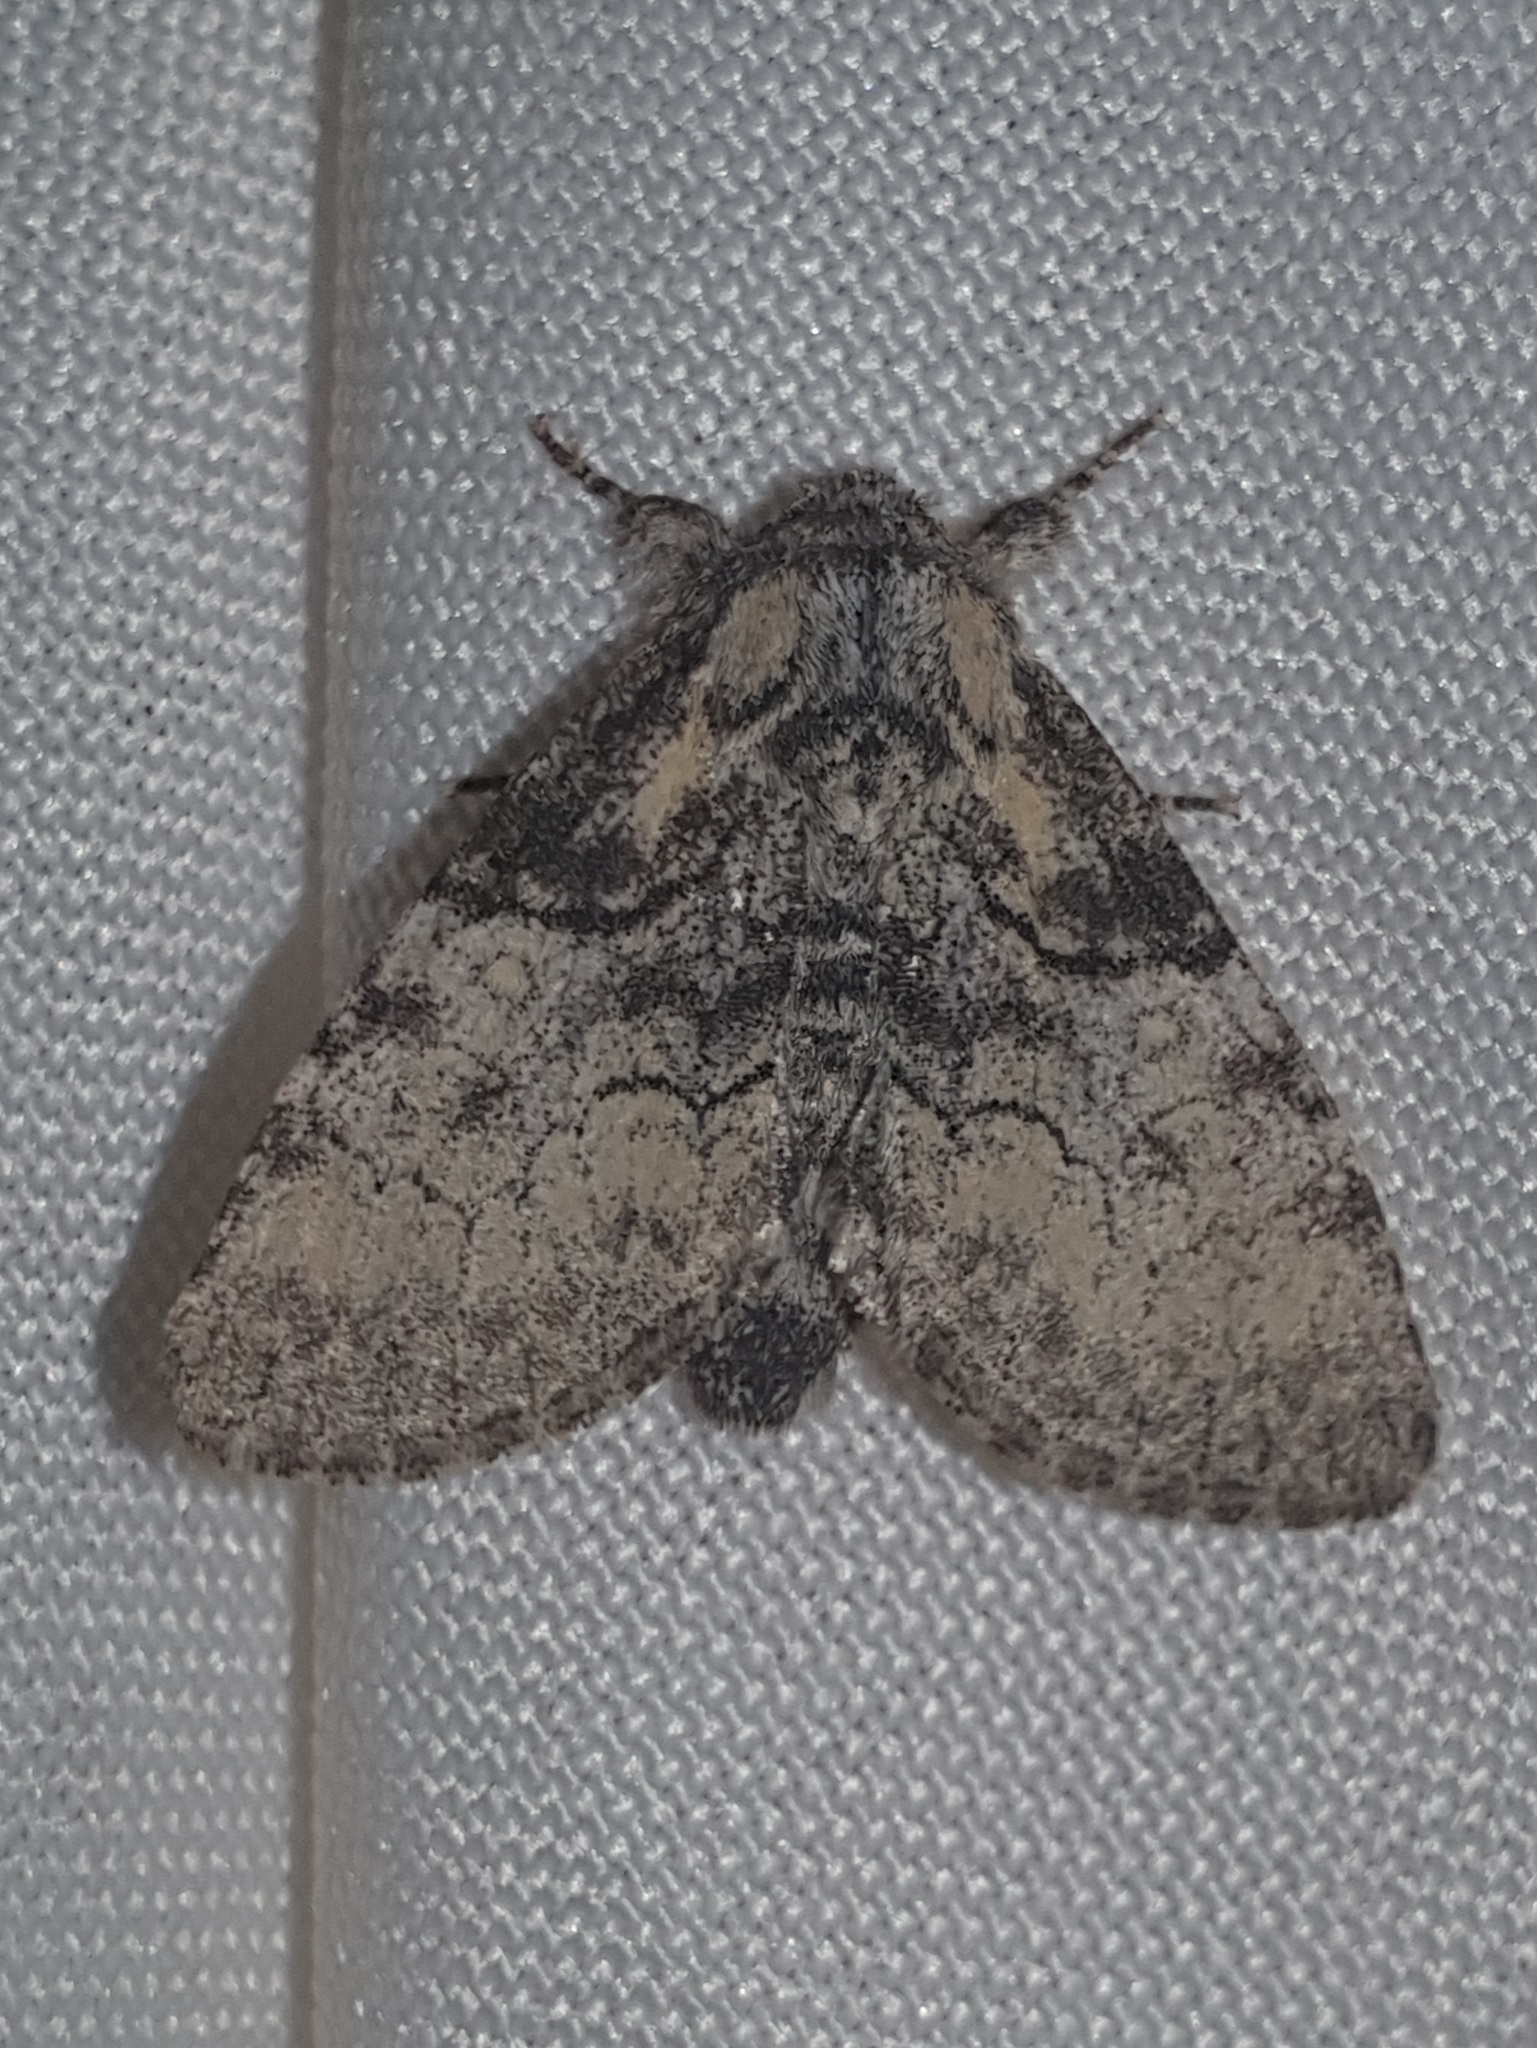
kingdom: Animalia
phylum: Arthropoda
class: Insecta
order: Lepidoptera
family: Noctuidae
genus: Raphia
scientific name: Raphia hybris
